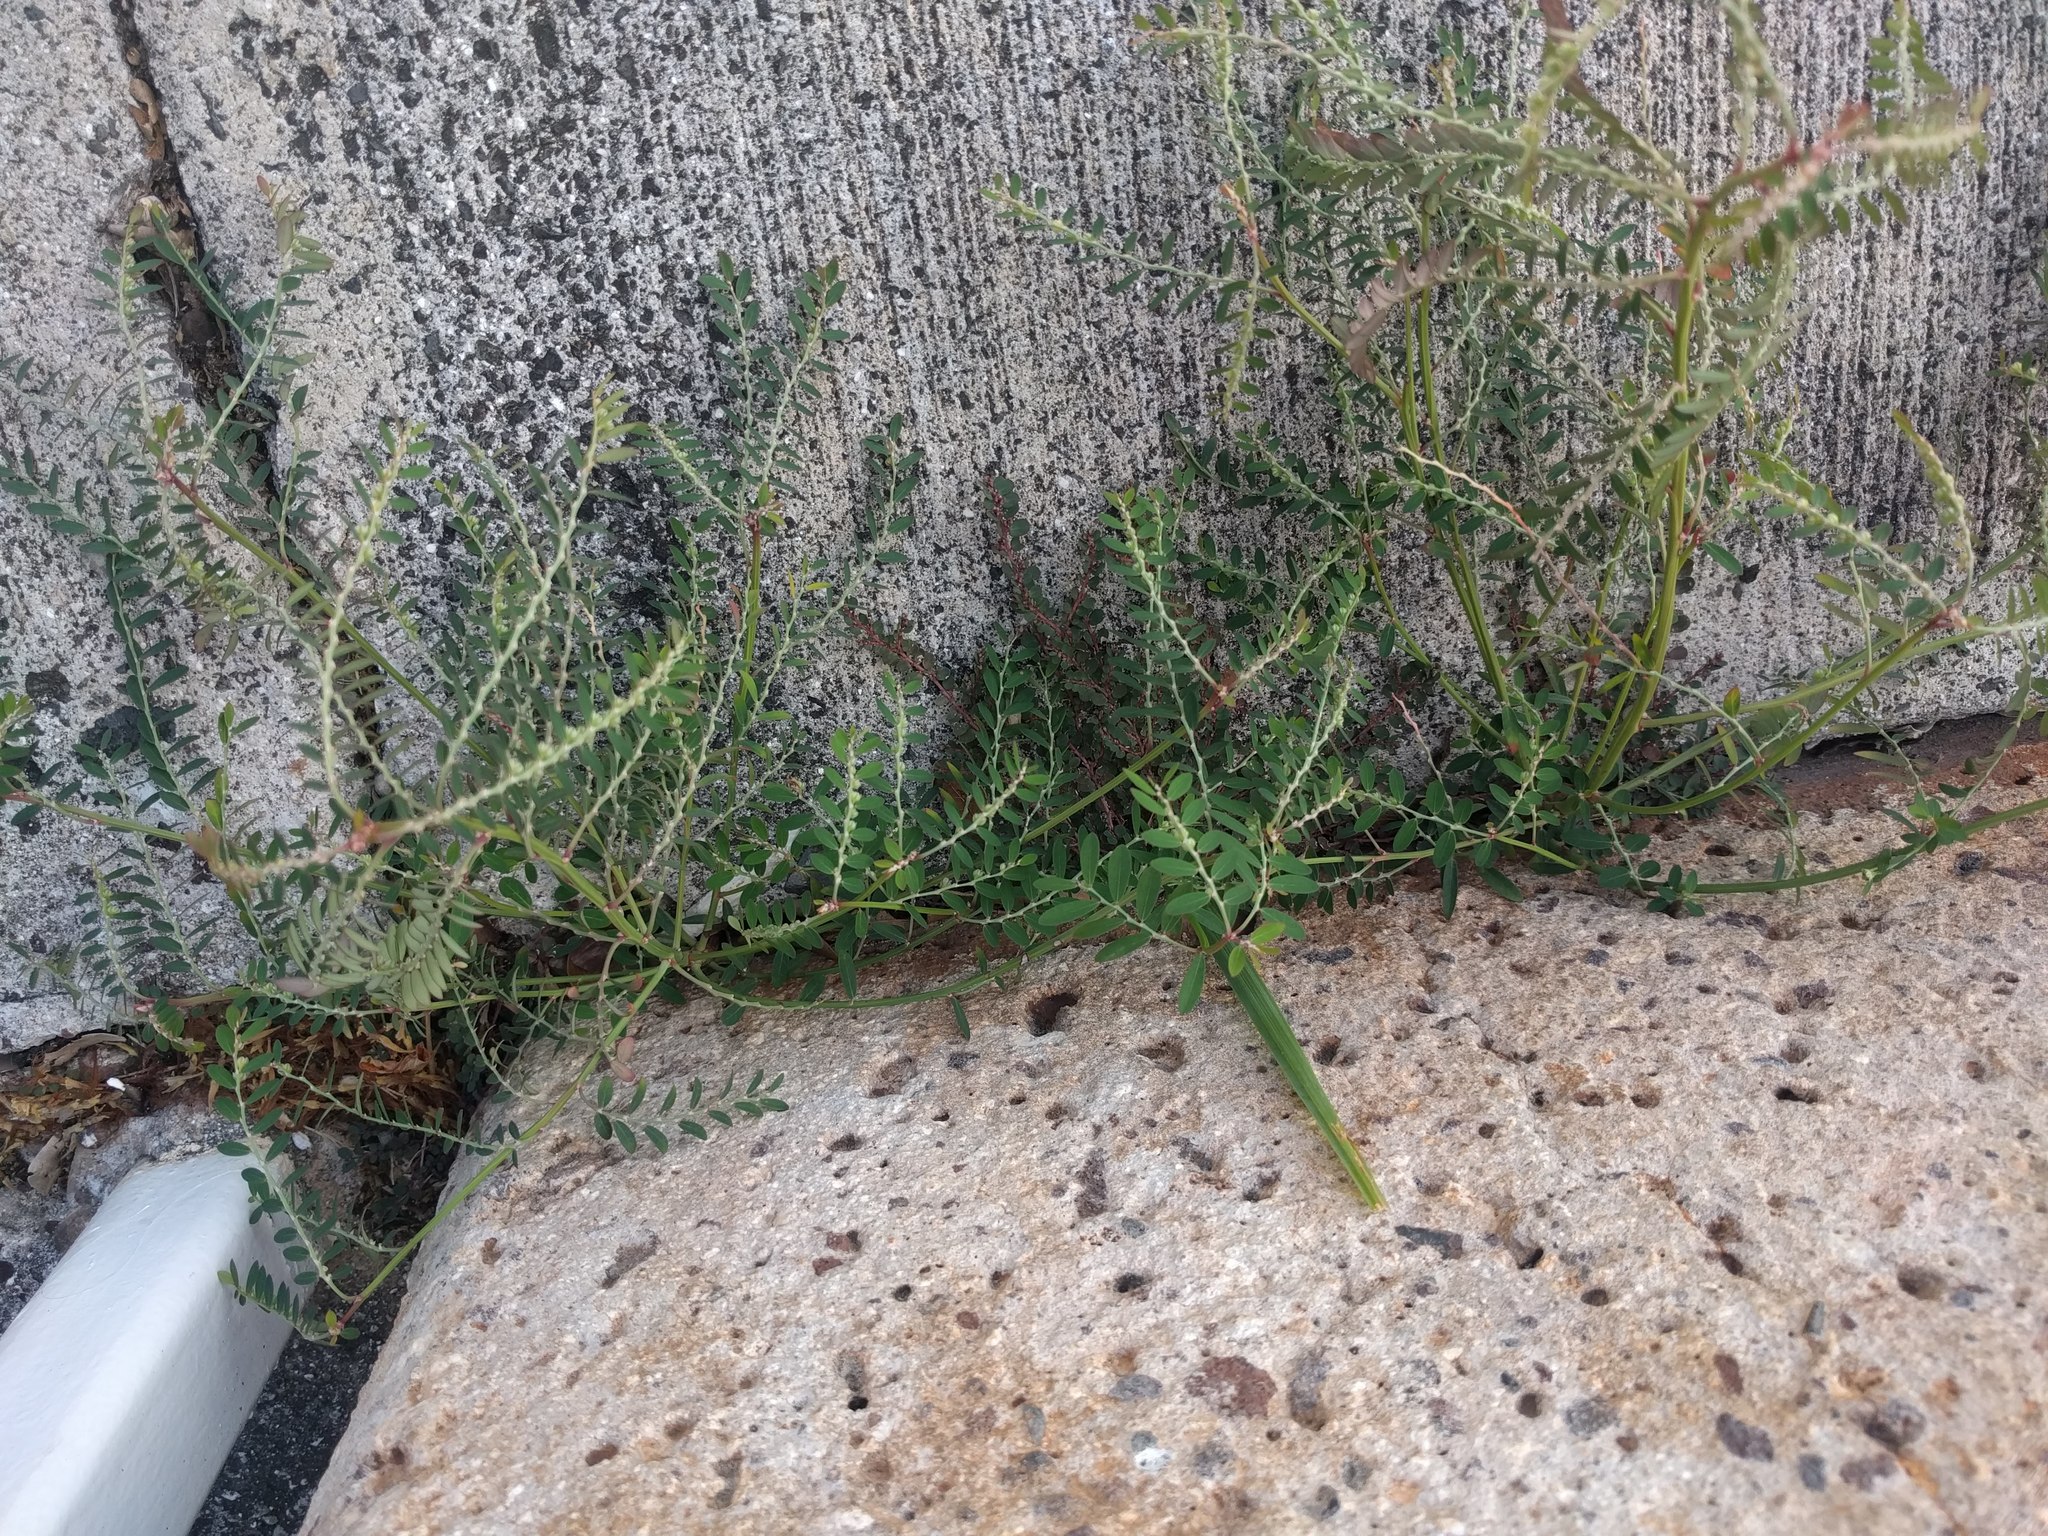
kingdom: Plantae
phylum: Tracheophyta
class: Magnoliopsida
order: Malpighiales
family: Phyllanthaceae
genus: Phyllanthus
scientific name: Phyllanthus debilis
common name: Niruri
